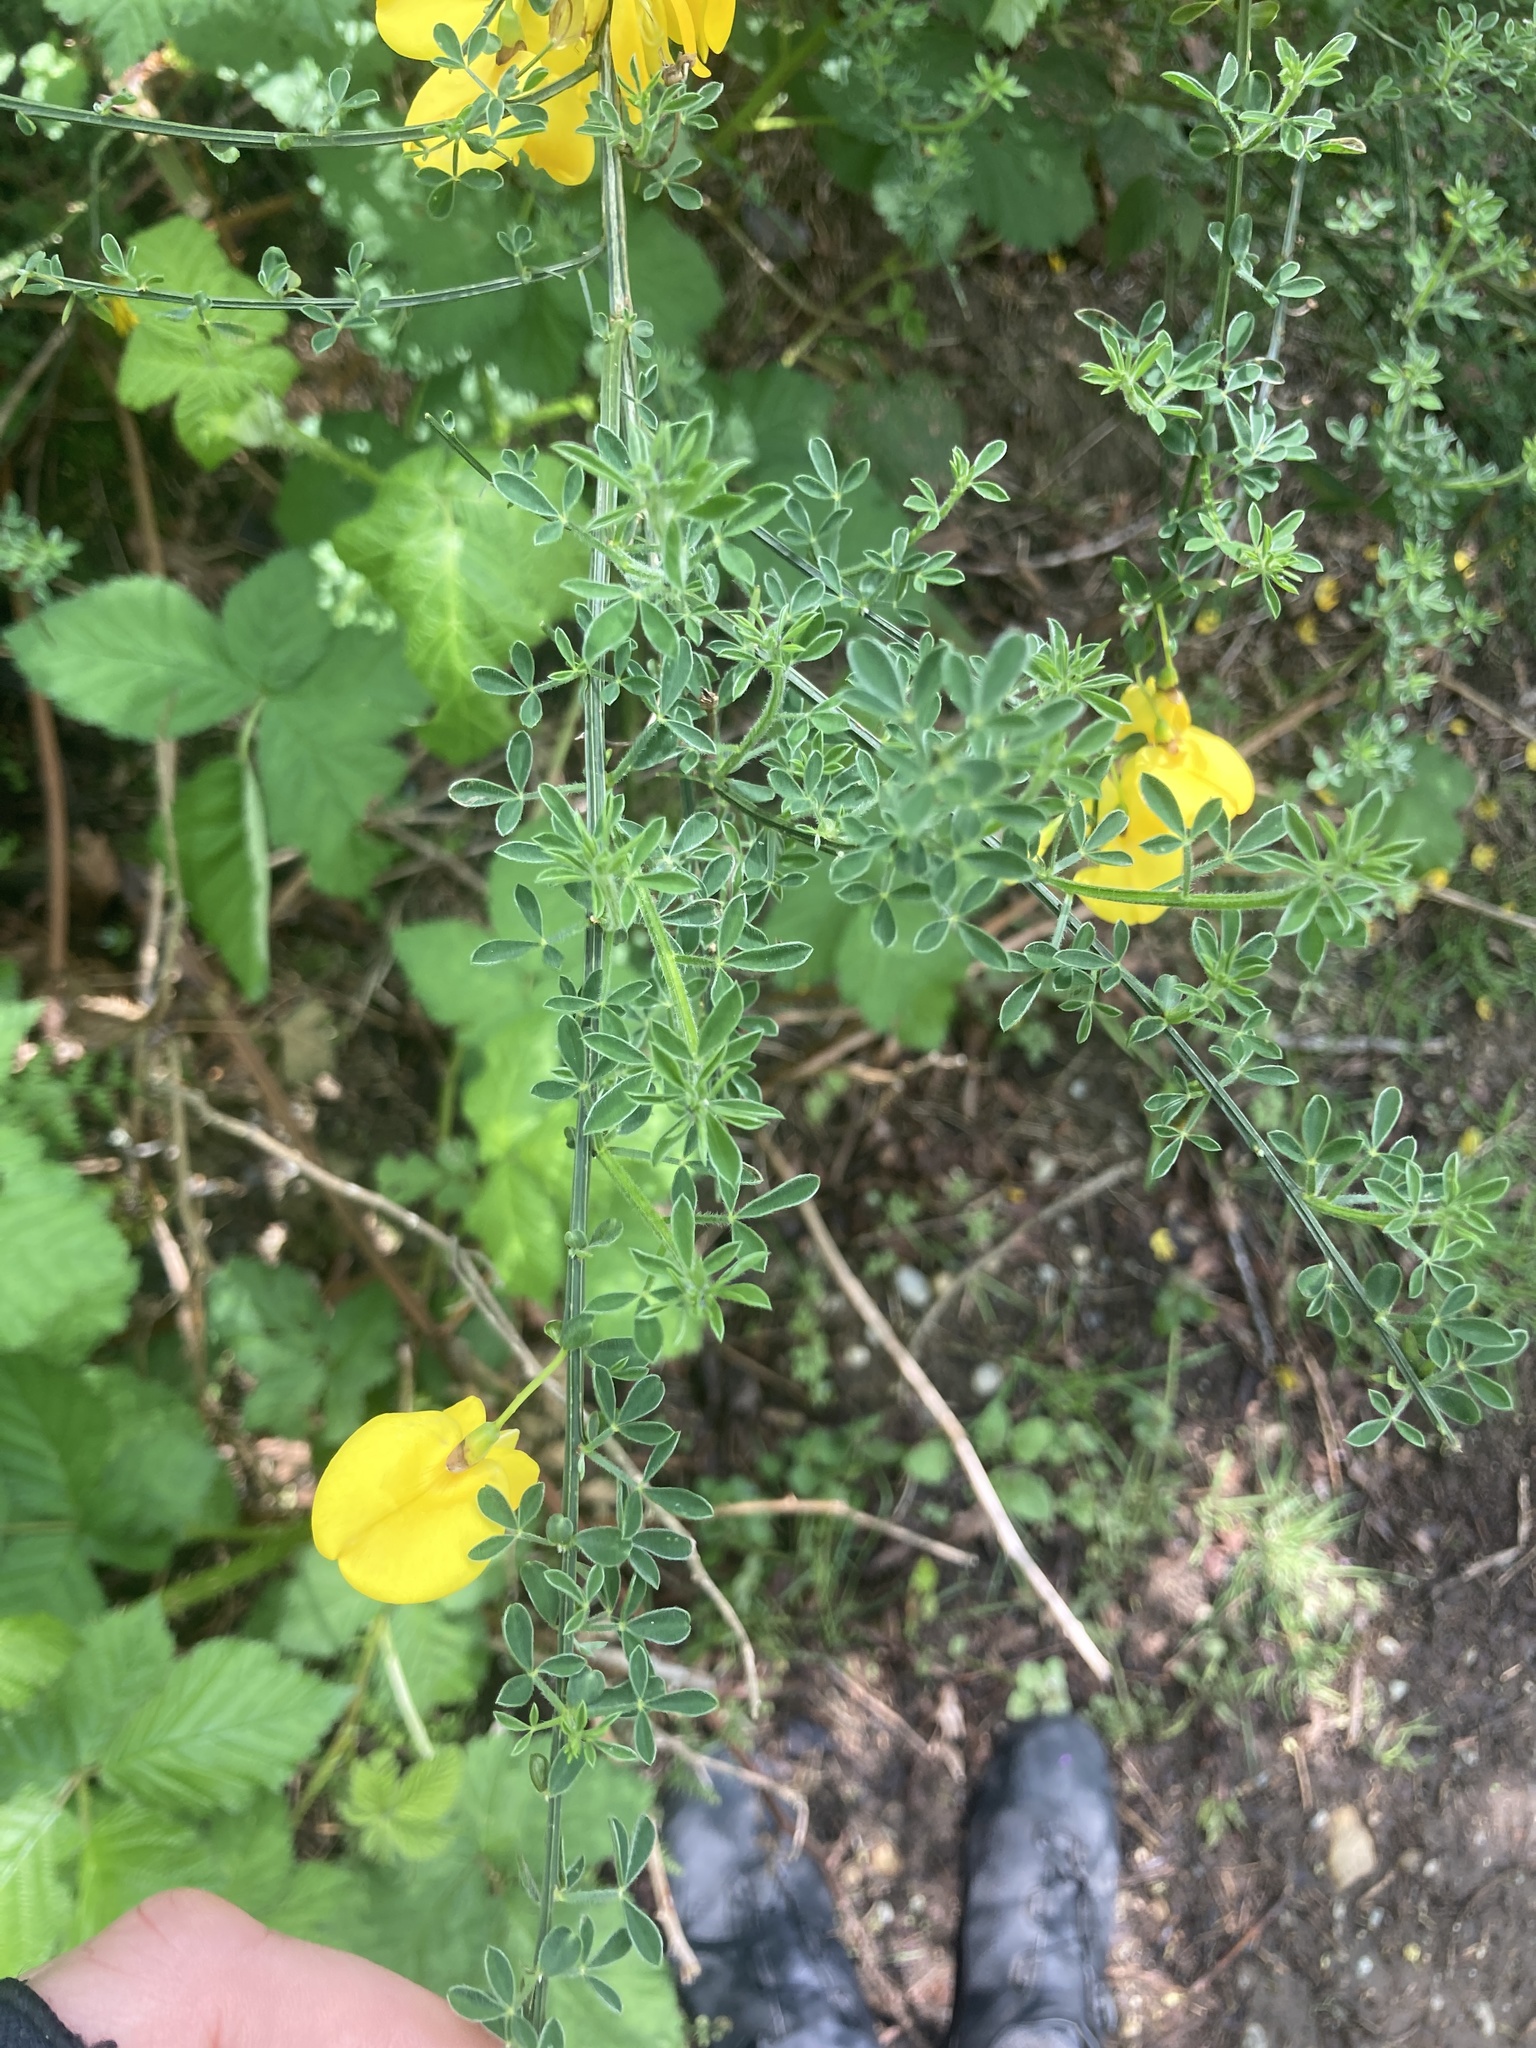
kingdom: Plantae
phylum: Tracheophyta
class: Magnoliopsida
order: Fabales
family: Fabaceae
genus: Cytisus
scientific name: Cytisus scoparius
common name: Scotch broom
